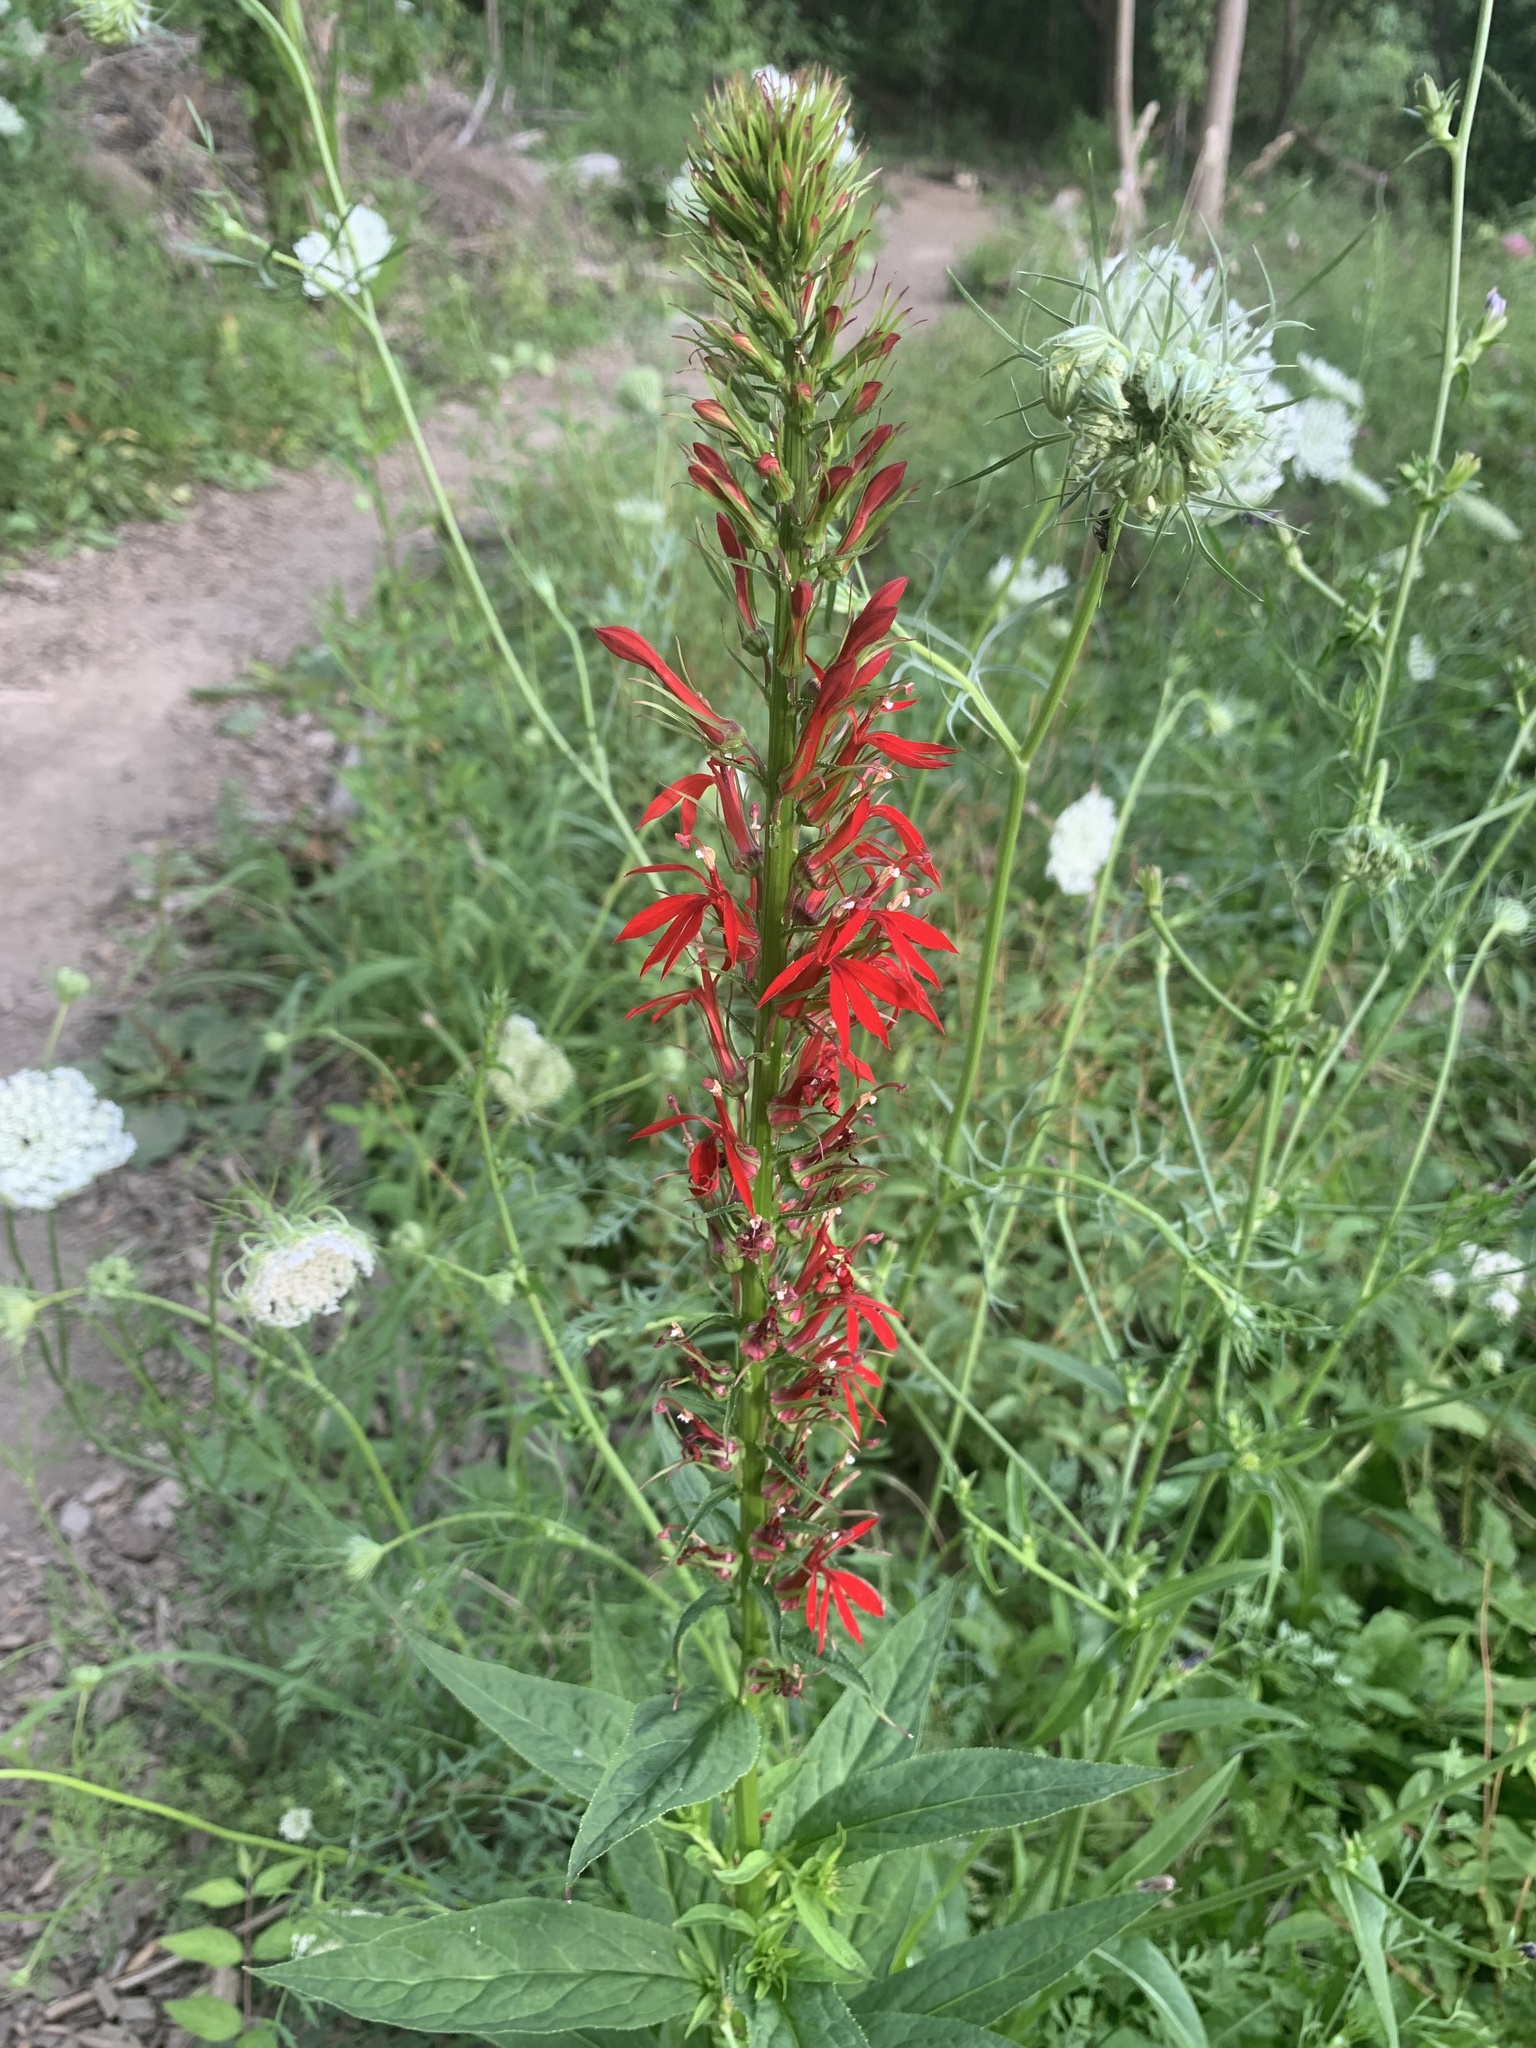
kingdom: Plantae
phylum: Tracheophyta
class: Magnoliopsida
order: Asterales
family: Campanulaceae
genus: Lobelia
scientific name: Lobelia cardinalis
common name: Cardinal flower
